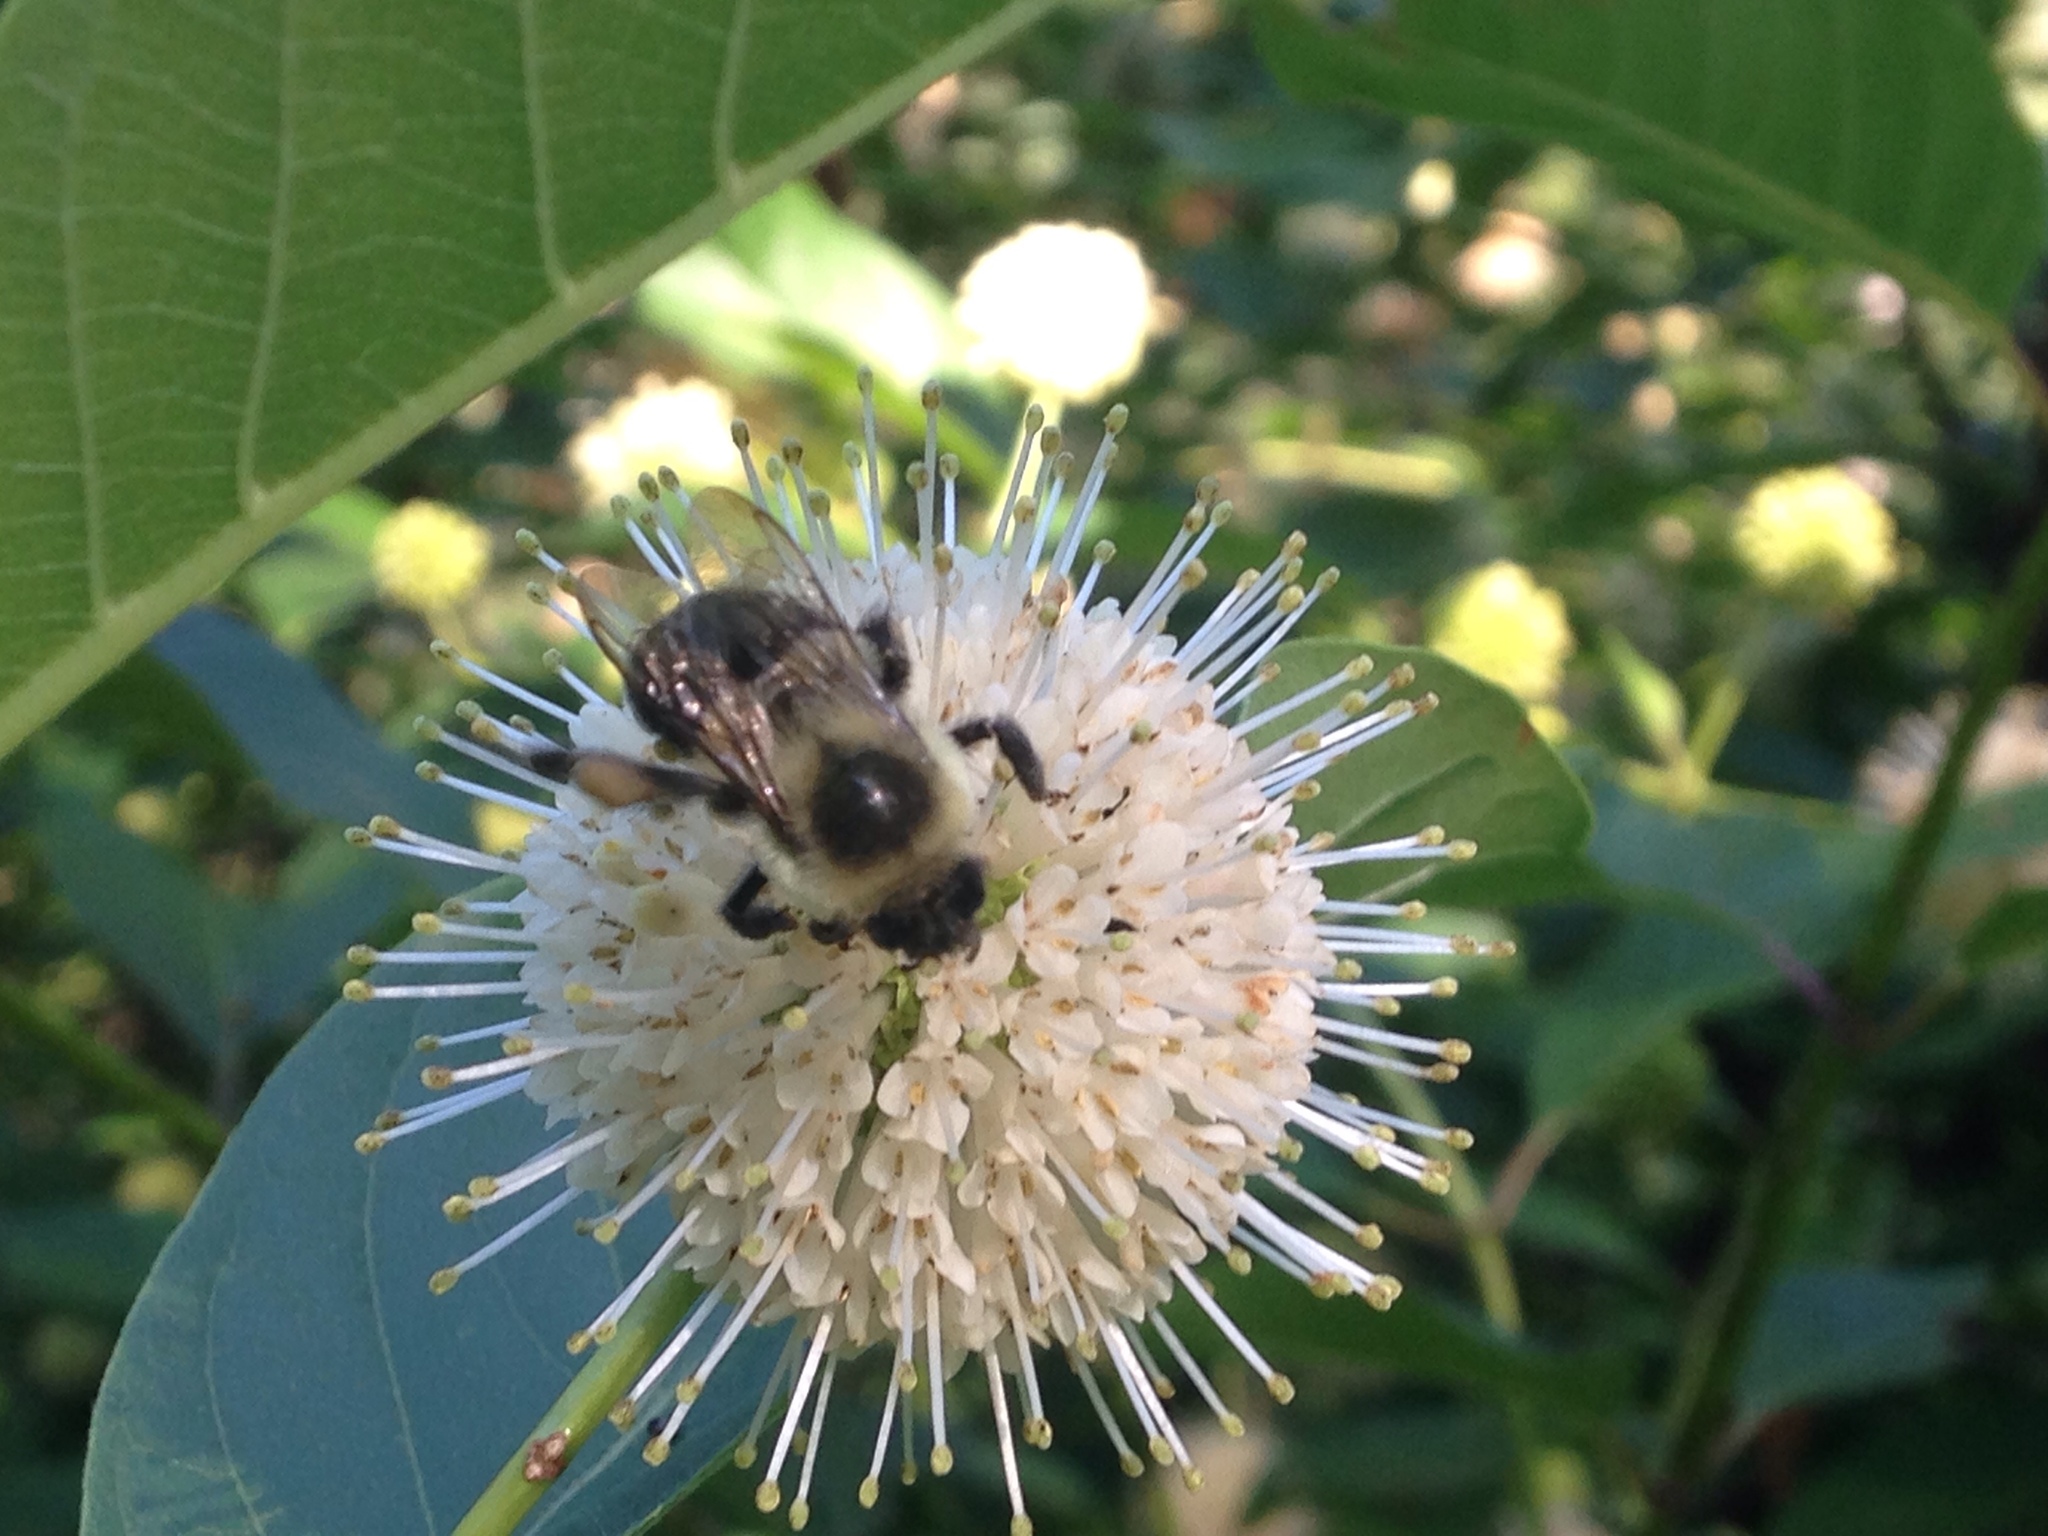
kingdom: Animalia
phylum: Arthropoda
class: Insecta
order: Hymenoptera
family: Apidae
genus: Bombus
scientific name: Bombus impatiens
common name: Common eastern bumble bee
